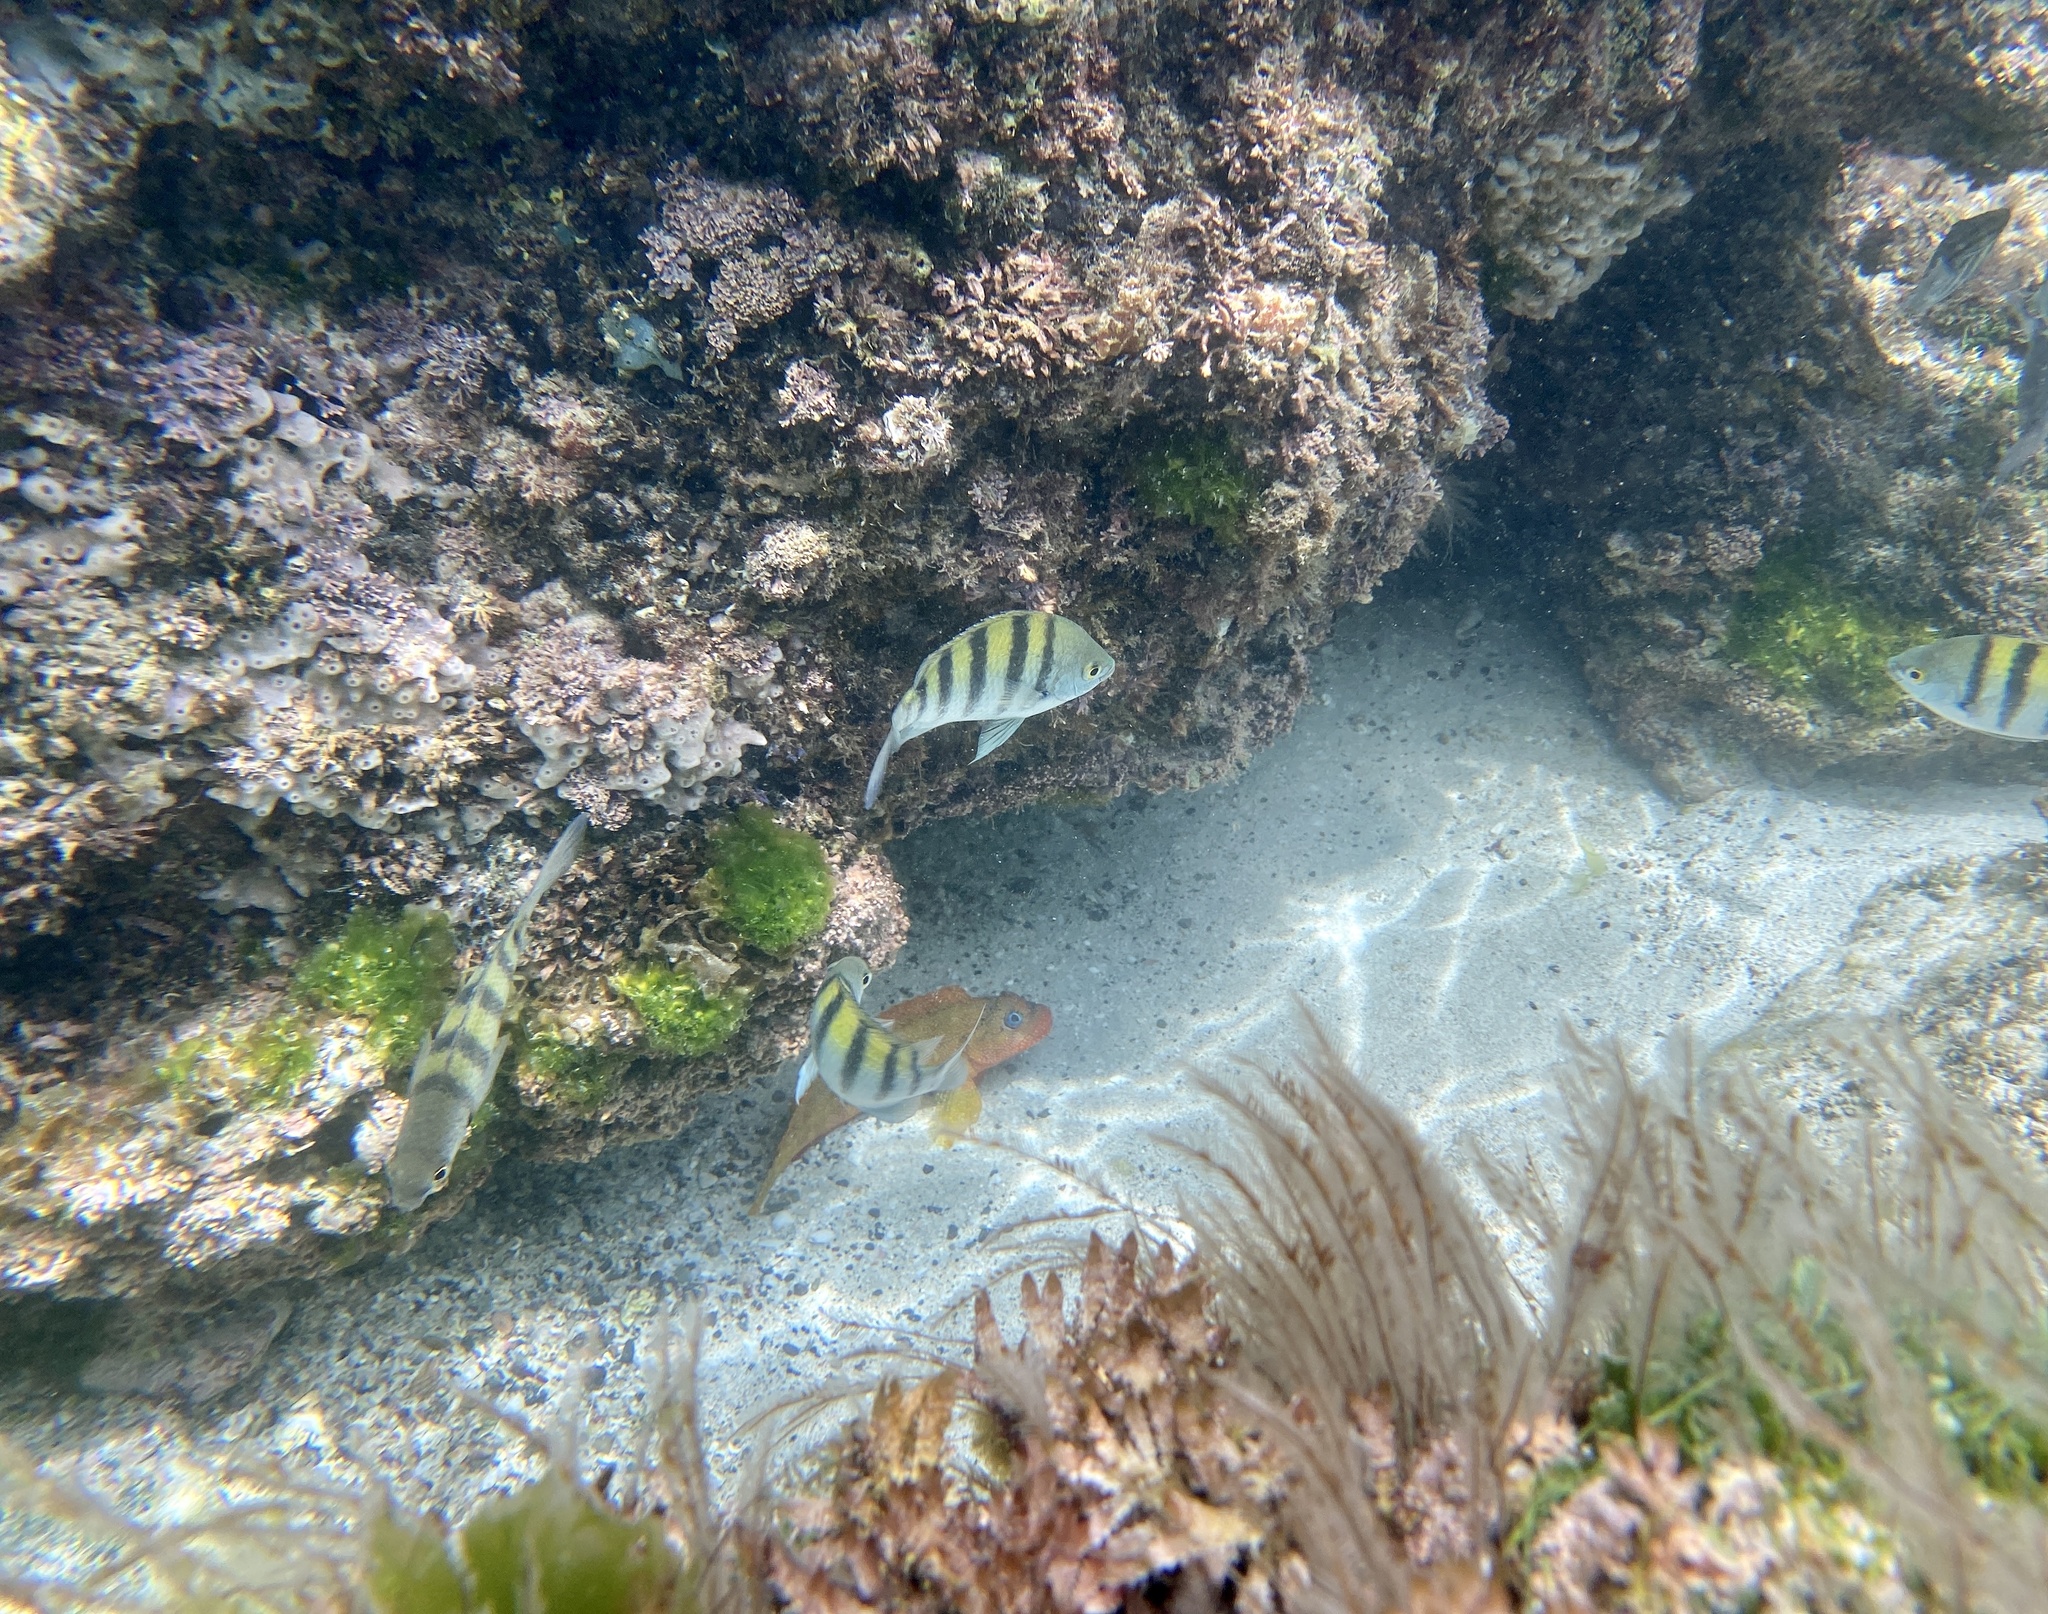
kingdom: Animalia
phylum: Chordata
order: Perciformes
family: Labrisomidae
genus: Labrisomus
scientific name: Labrisomus xanti
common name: Largemouth blenny
